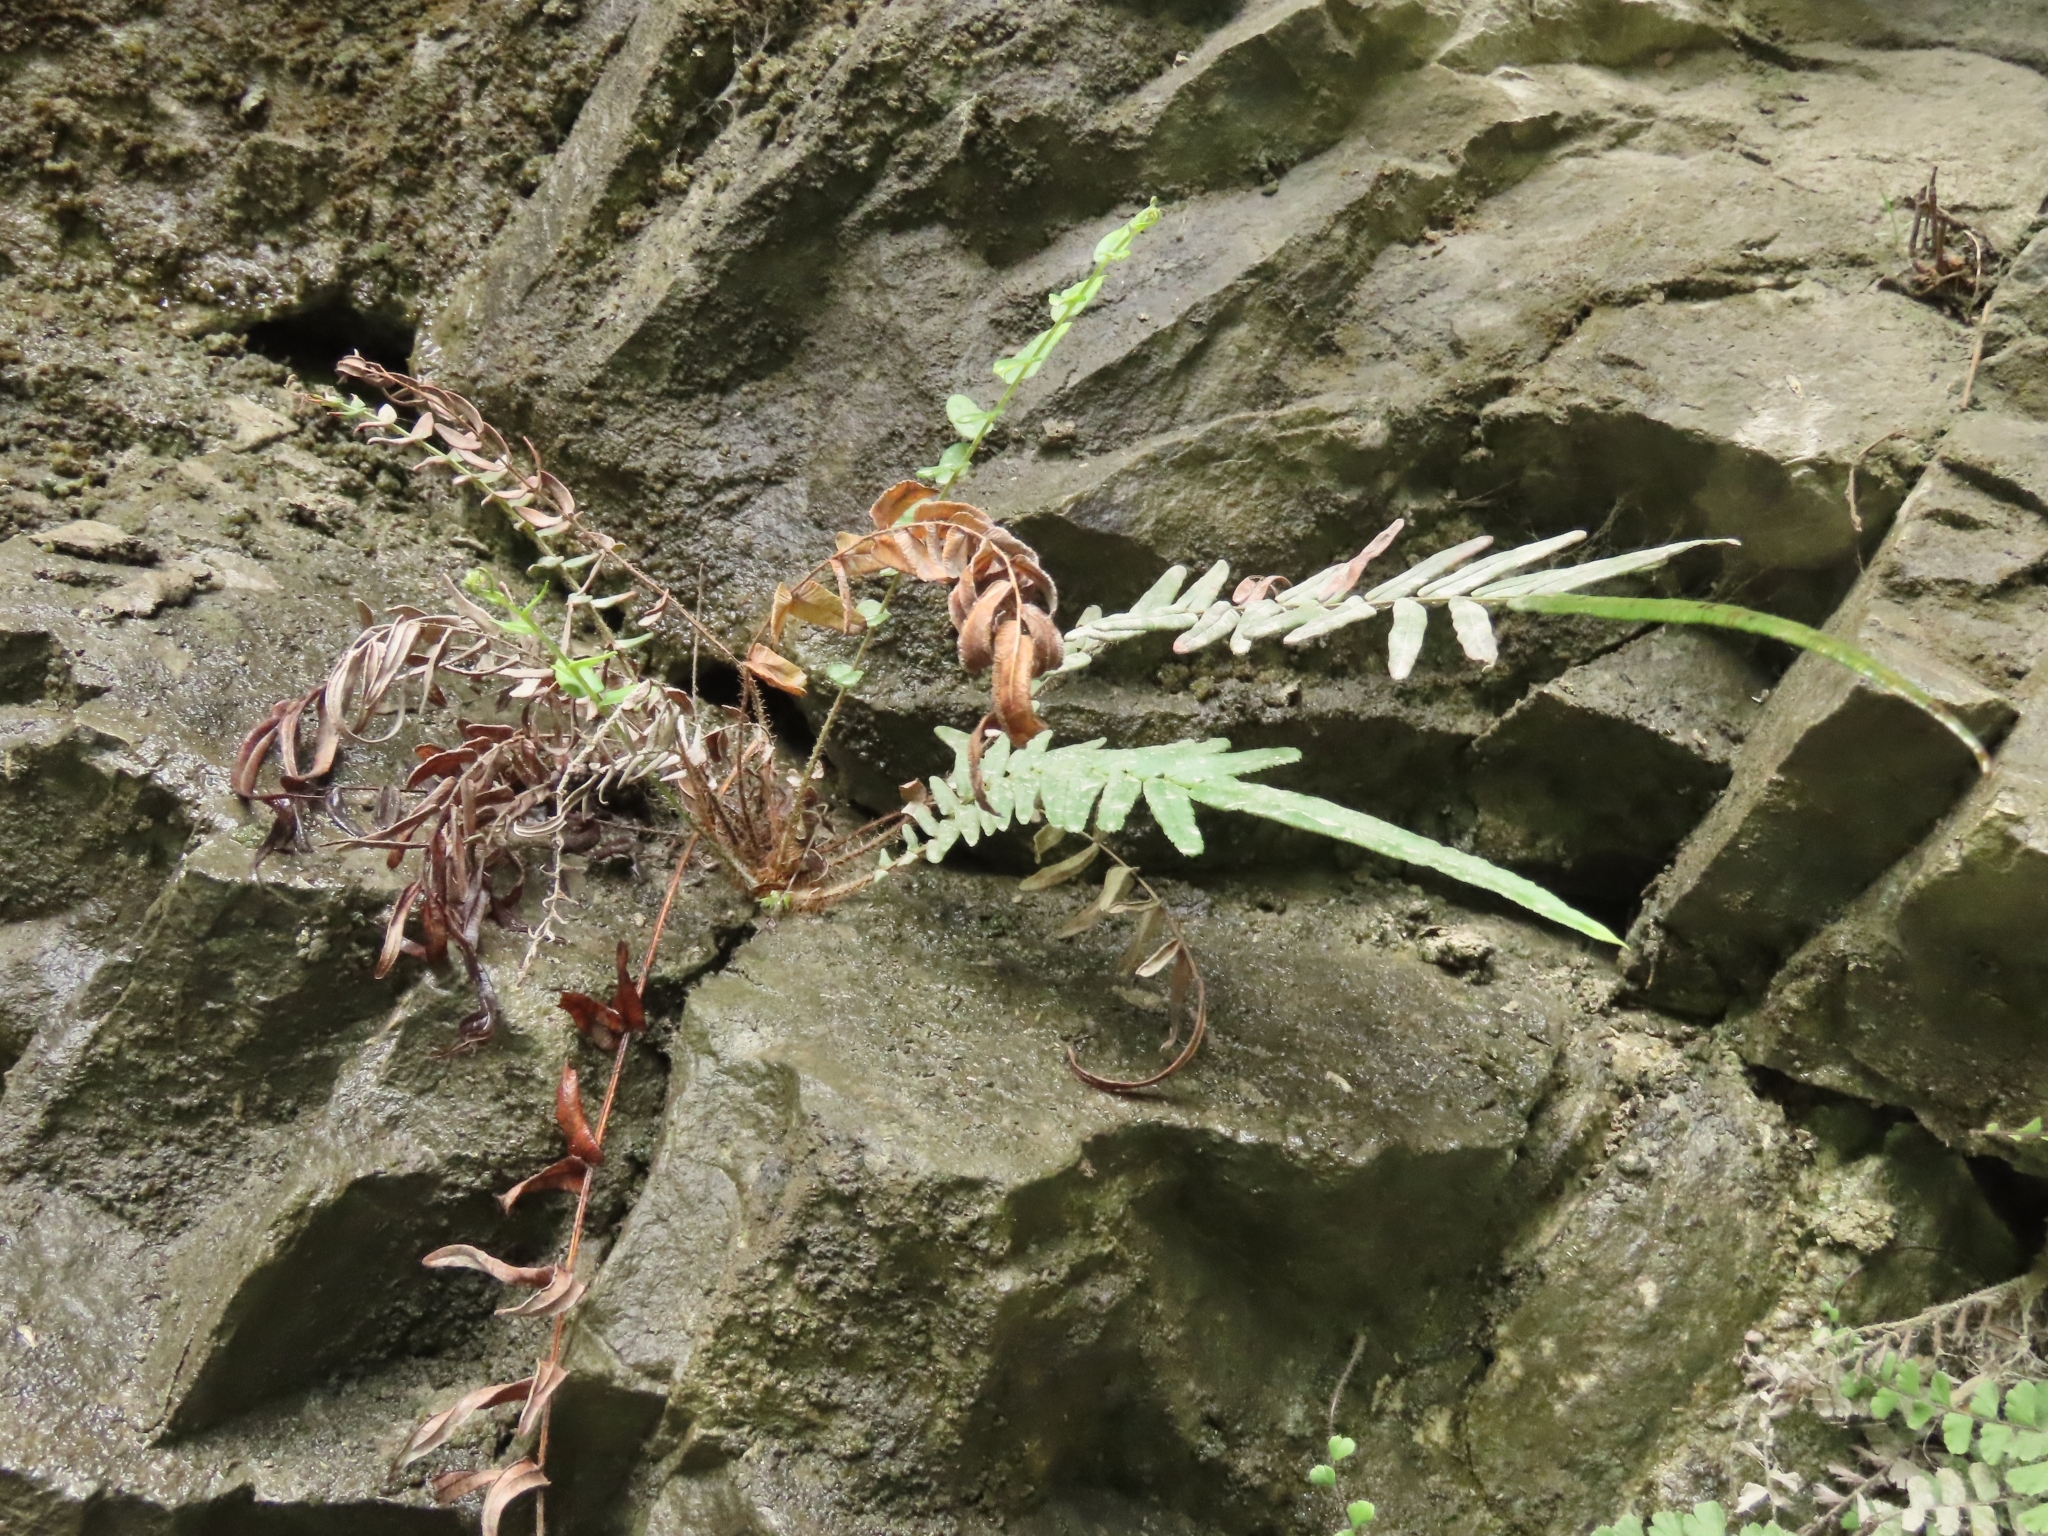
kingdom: Plantae
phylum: Tracheophyta
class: Polypodiopsida
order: Polypodiales
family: Pteridaceae
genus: Pteris
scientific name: Pteris vittata
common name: Ladder brake
